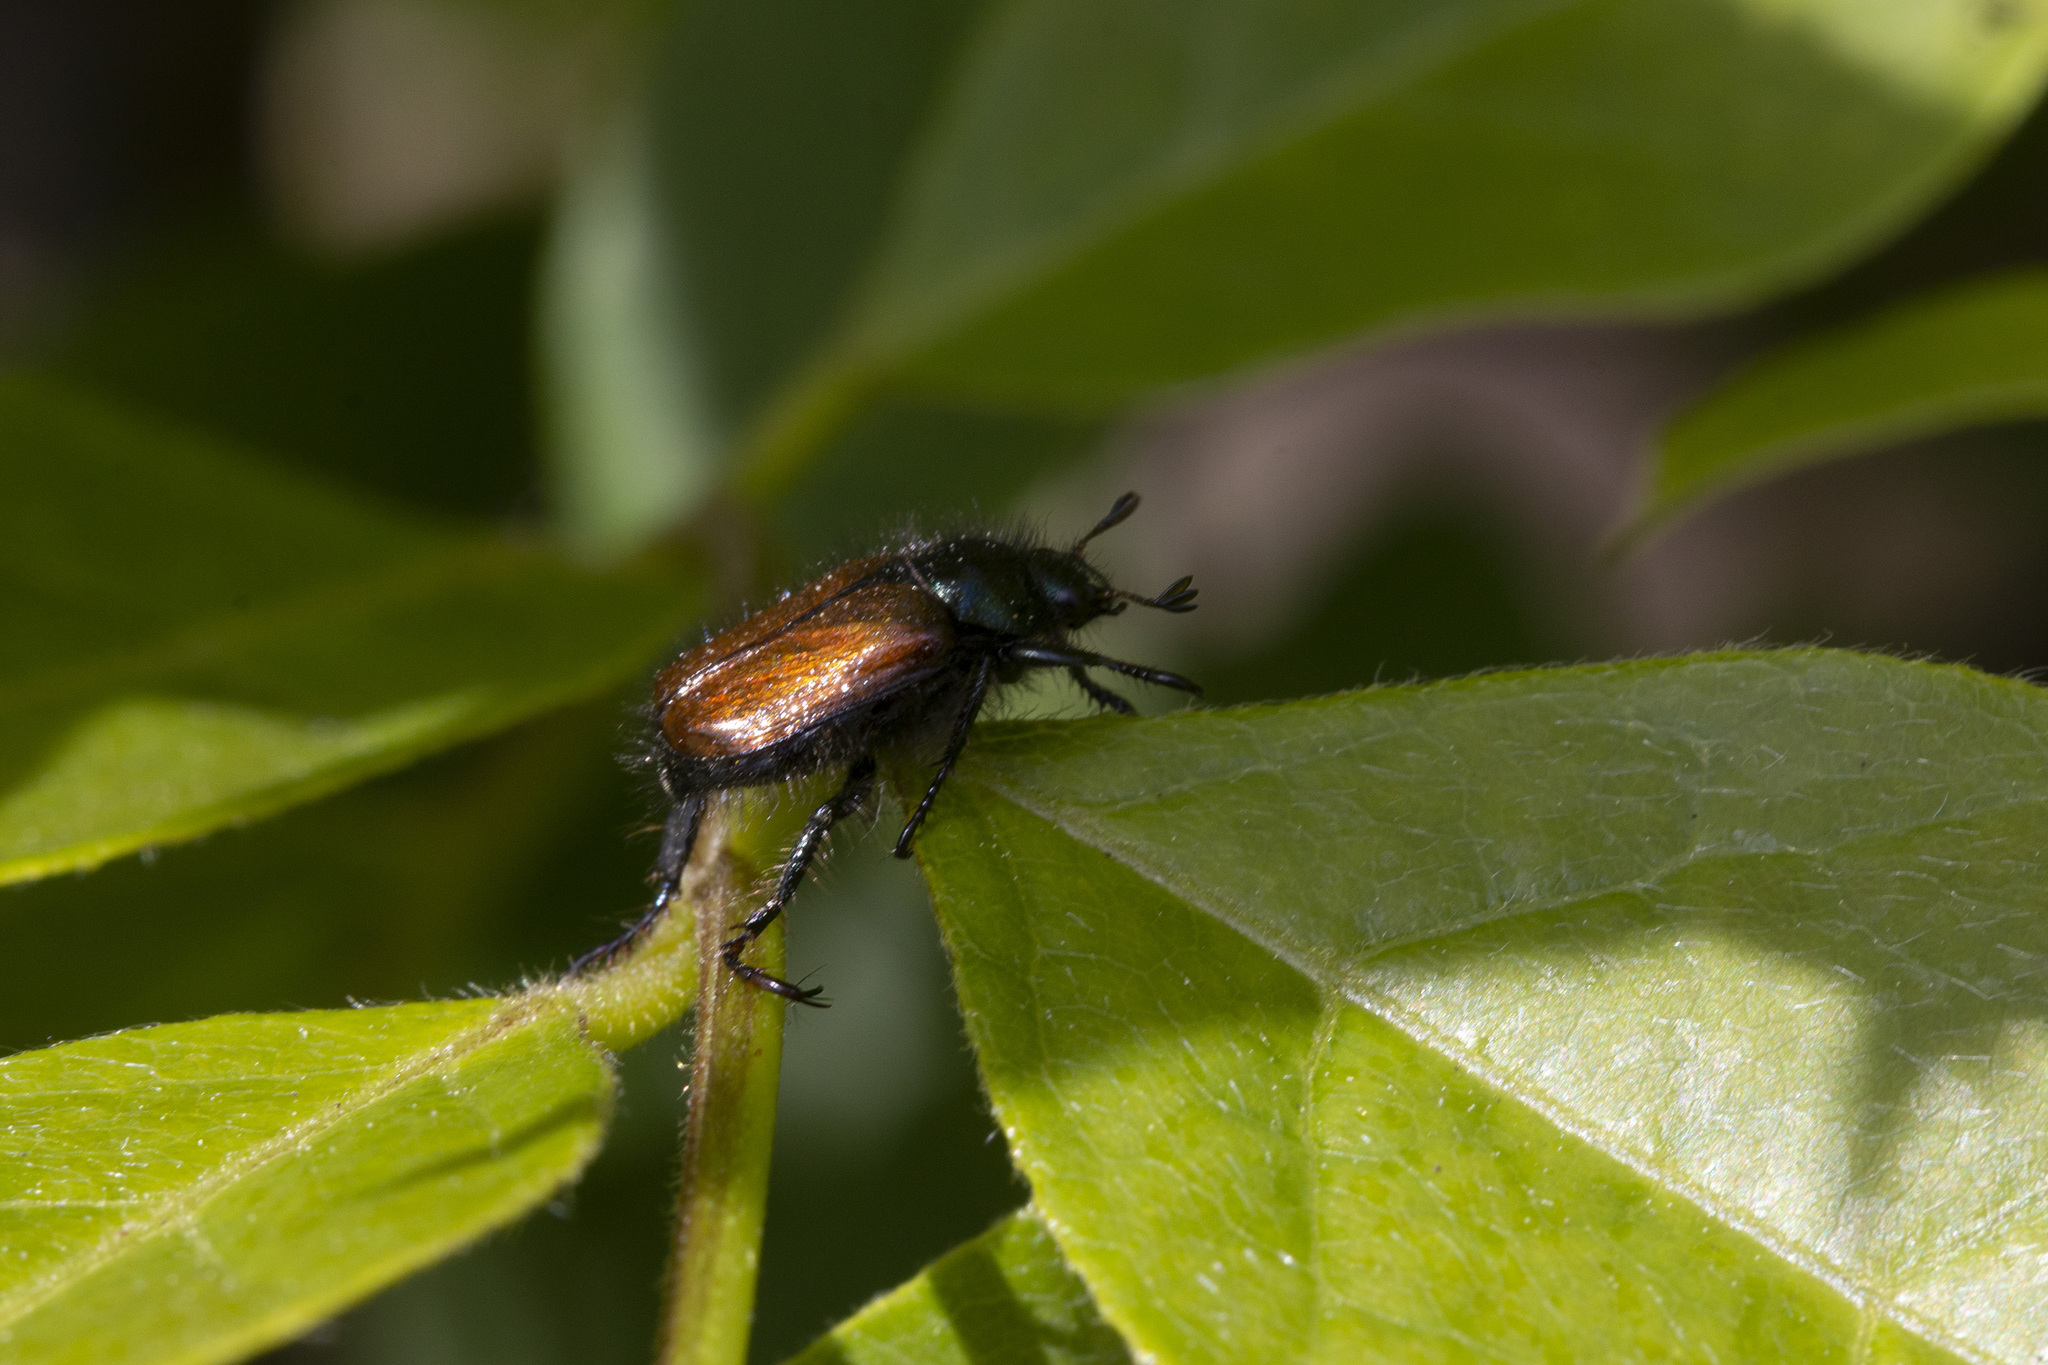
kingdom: Animalia
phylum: Arthropoda
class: Insecta
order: Coleoptera
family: Scarabaeidae
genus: Phyllopertha
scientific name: Phyllopertha horticola
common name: Garden chafer
